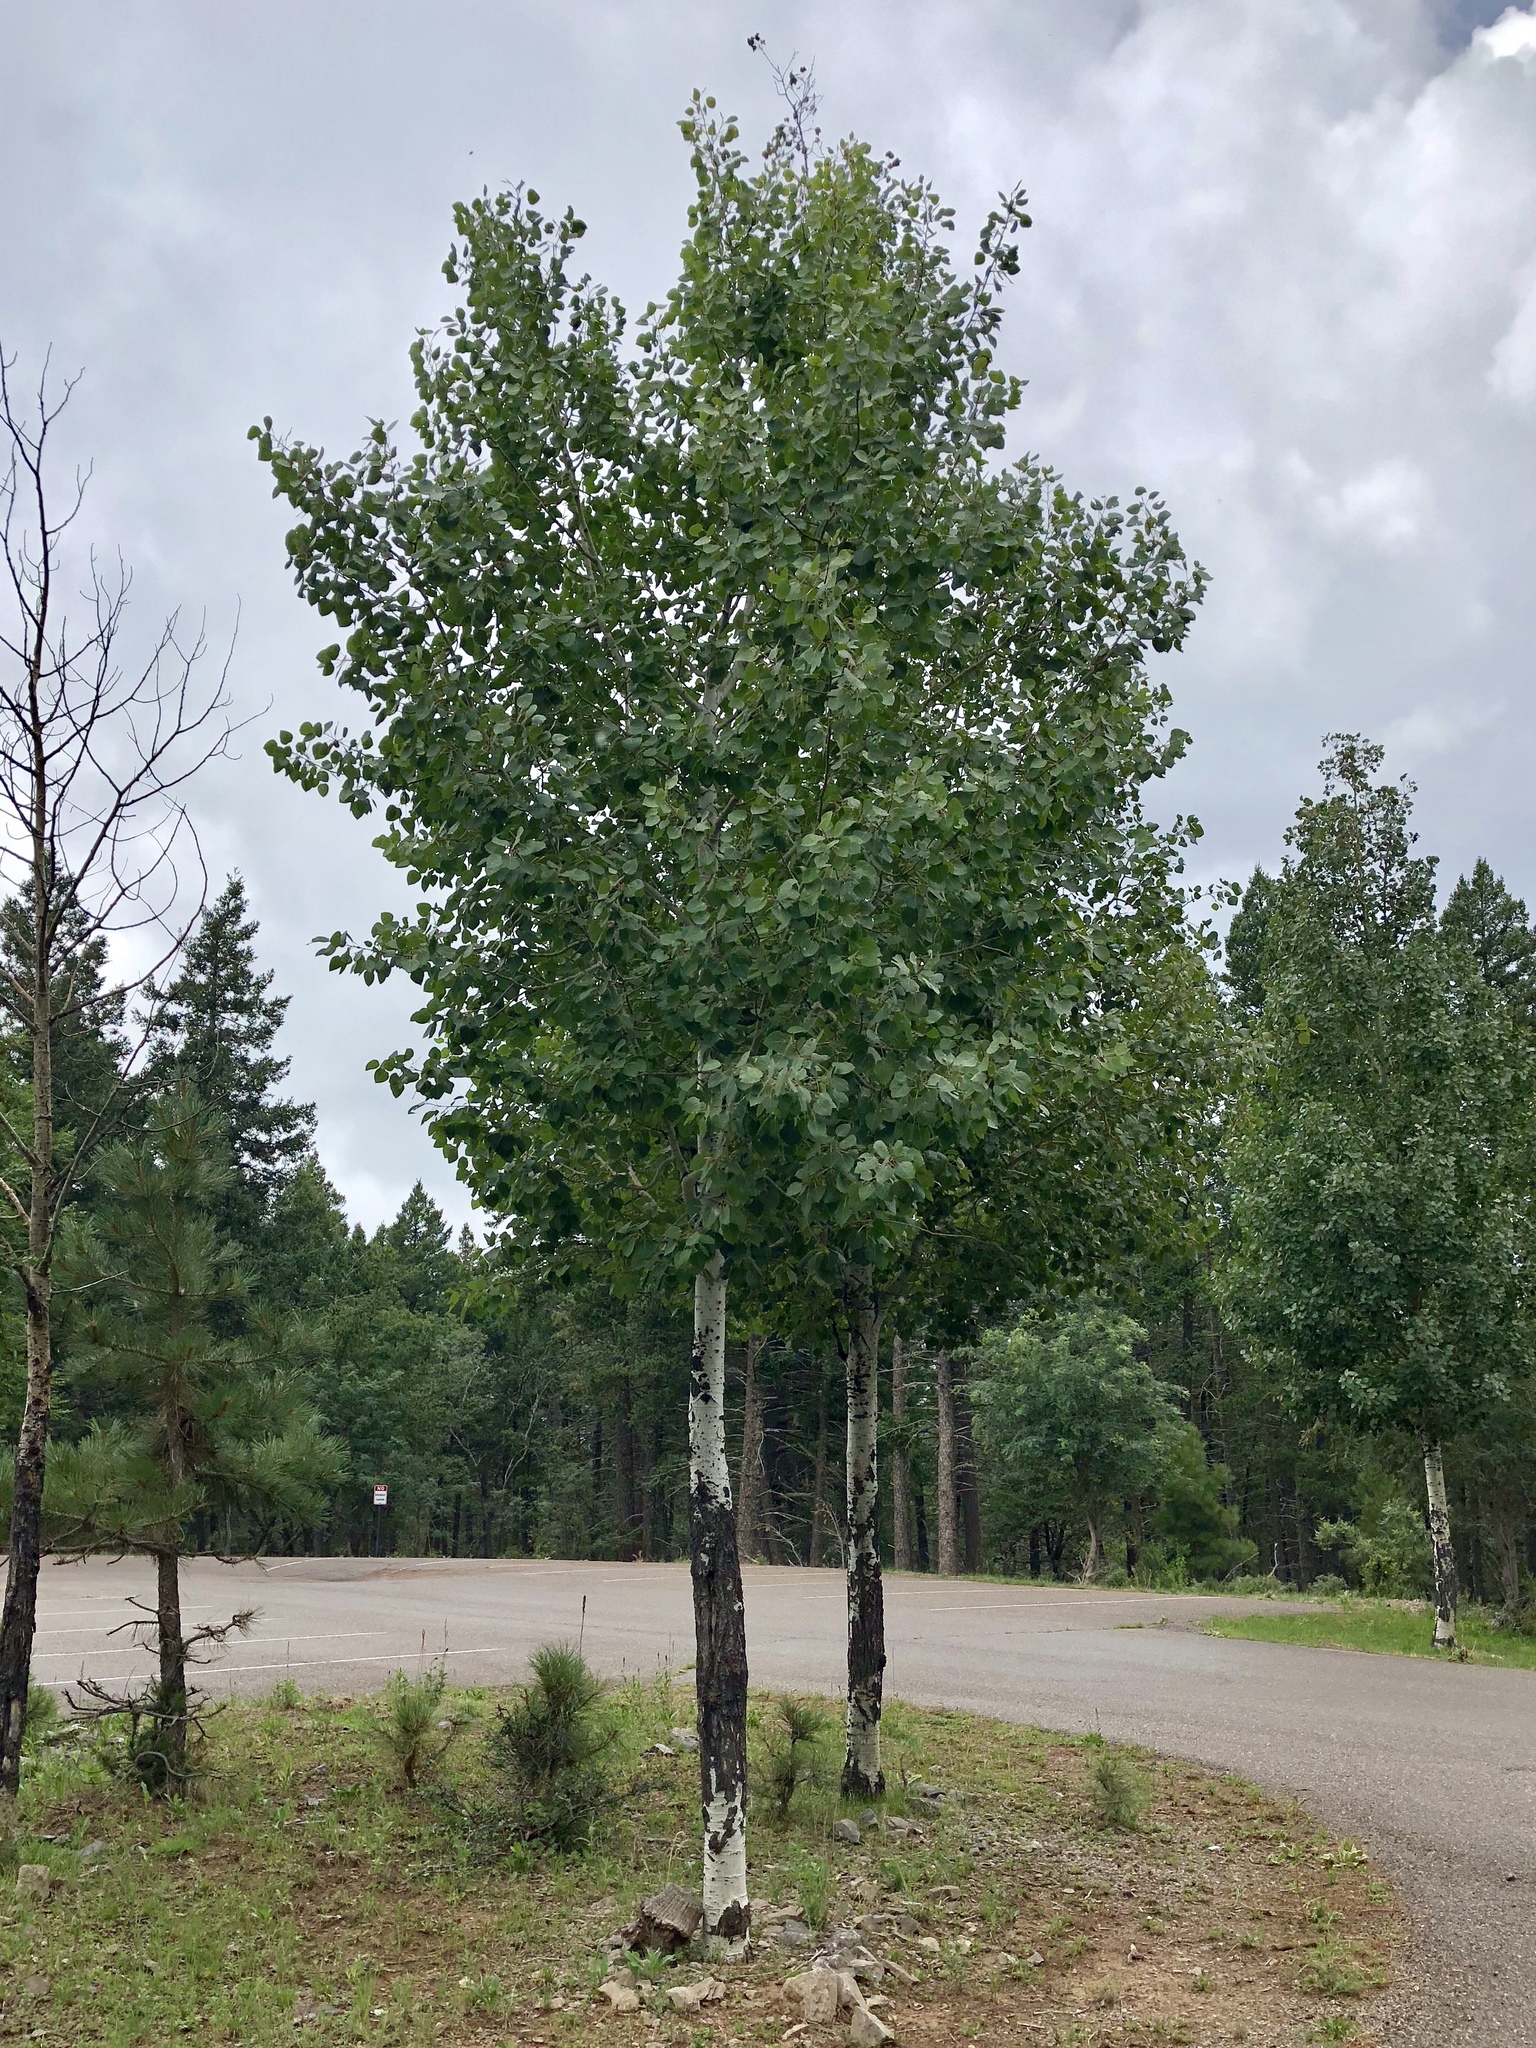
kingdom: Plantae
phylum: Tracheophyta
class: Magnoliopsida
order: Malpighiales
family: Salicaceae
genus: Populus
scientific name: Populus tremuloides
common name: Quaking aspen
